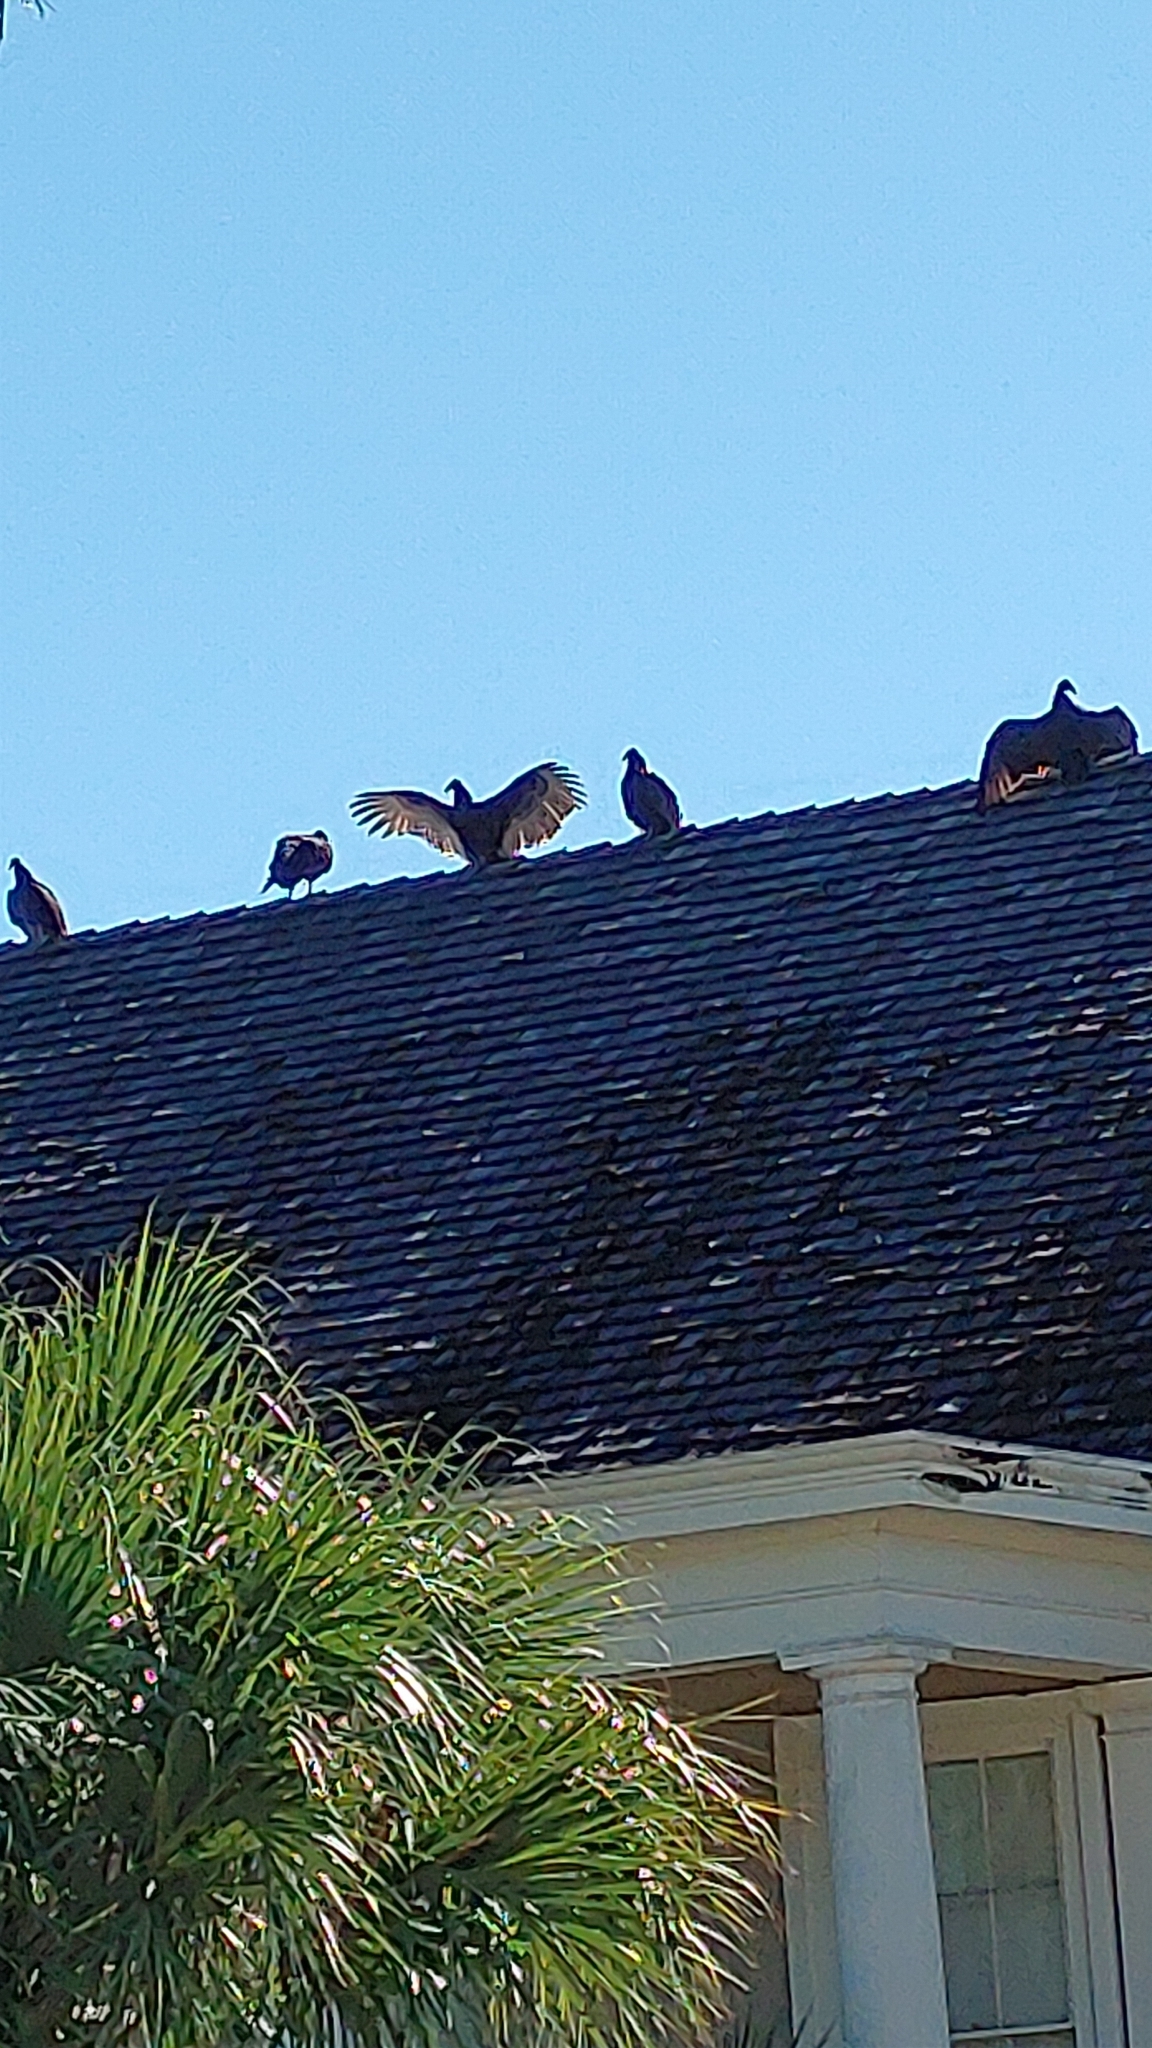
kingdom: Animalia
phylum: Chordata
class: Aves
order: Accipitriformes
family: Cathartidae
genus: Cathartes
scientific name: Cathartes aura
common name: Turkey vulture
